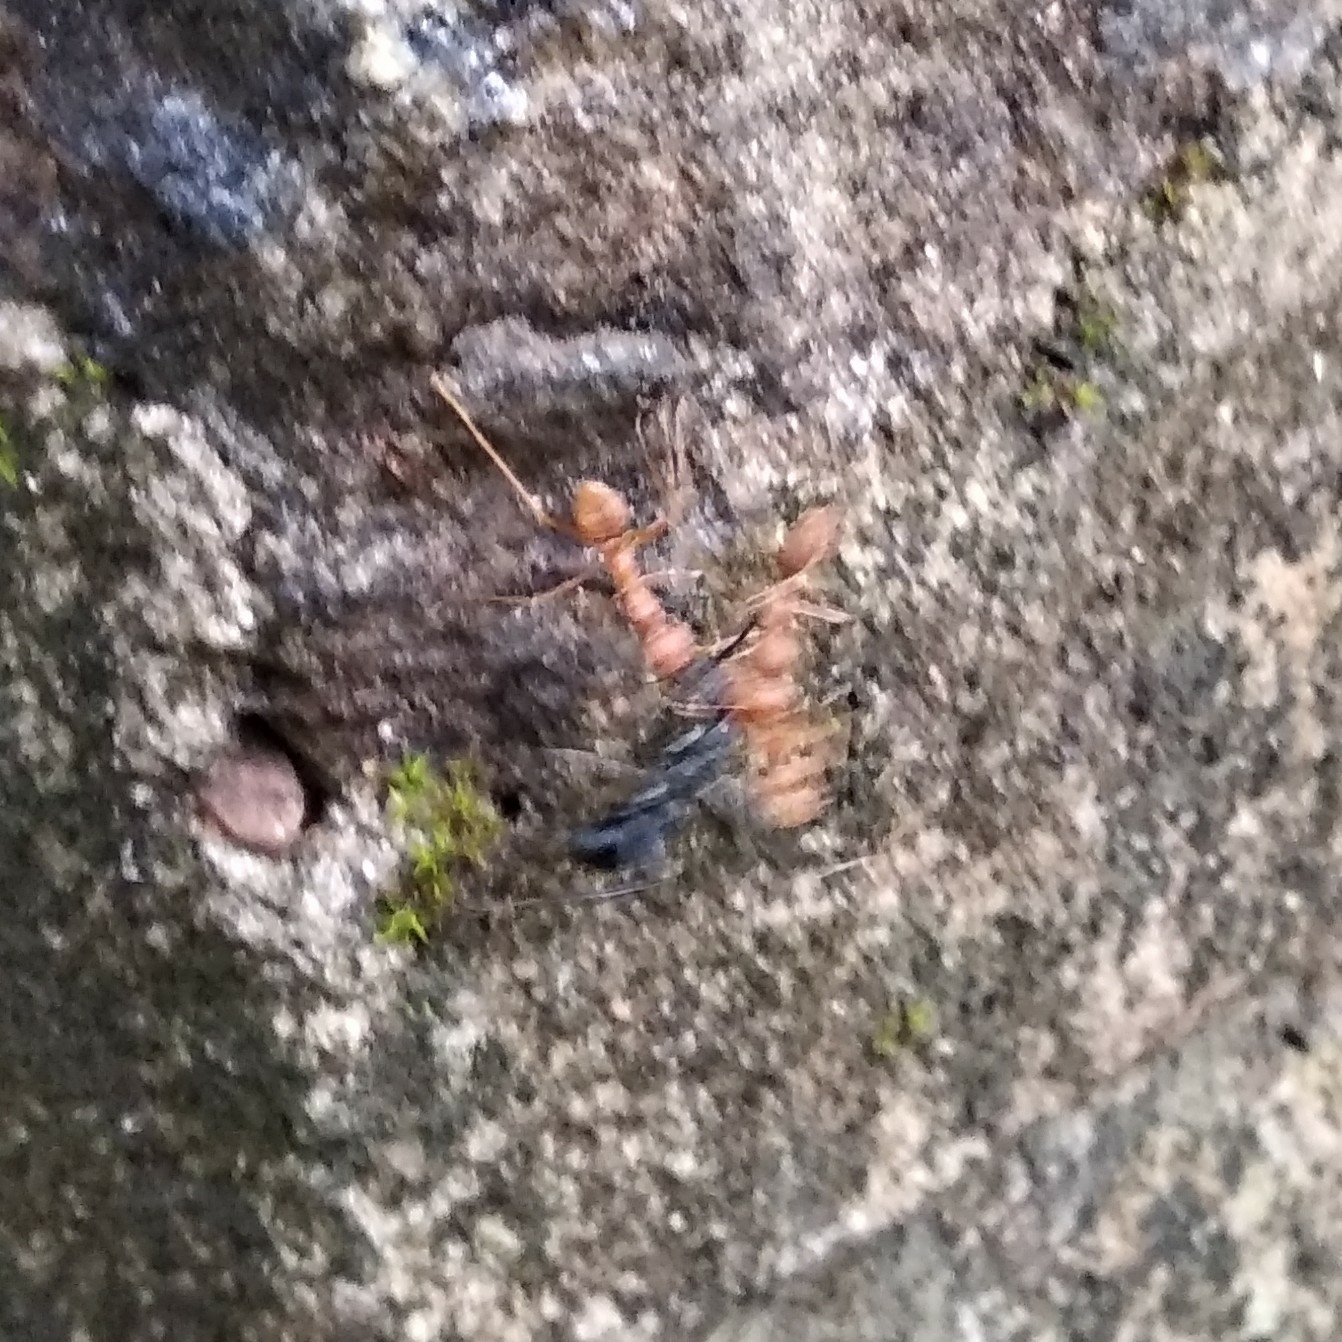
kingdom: Animalia
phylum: Arthropoda
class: Insecta
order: Hymenoptera
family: Formicidae
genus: Oecophylla
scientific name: Oecophylla smaragdina
